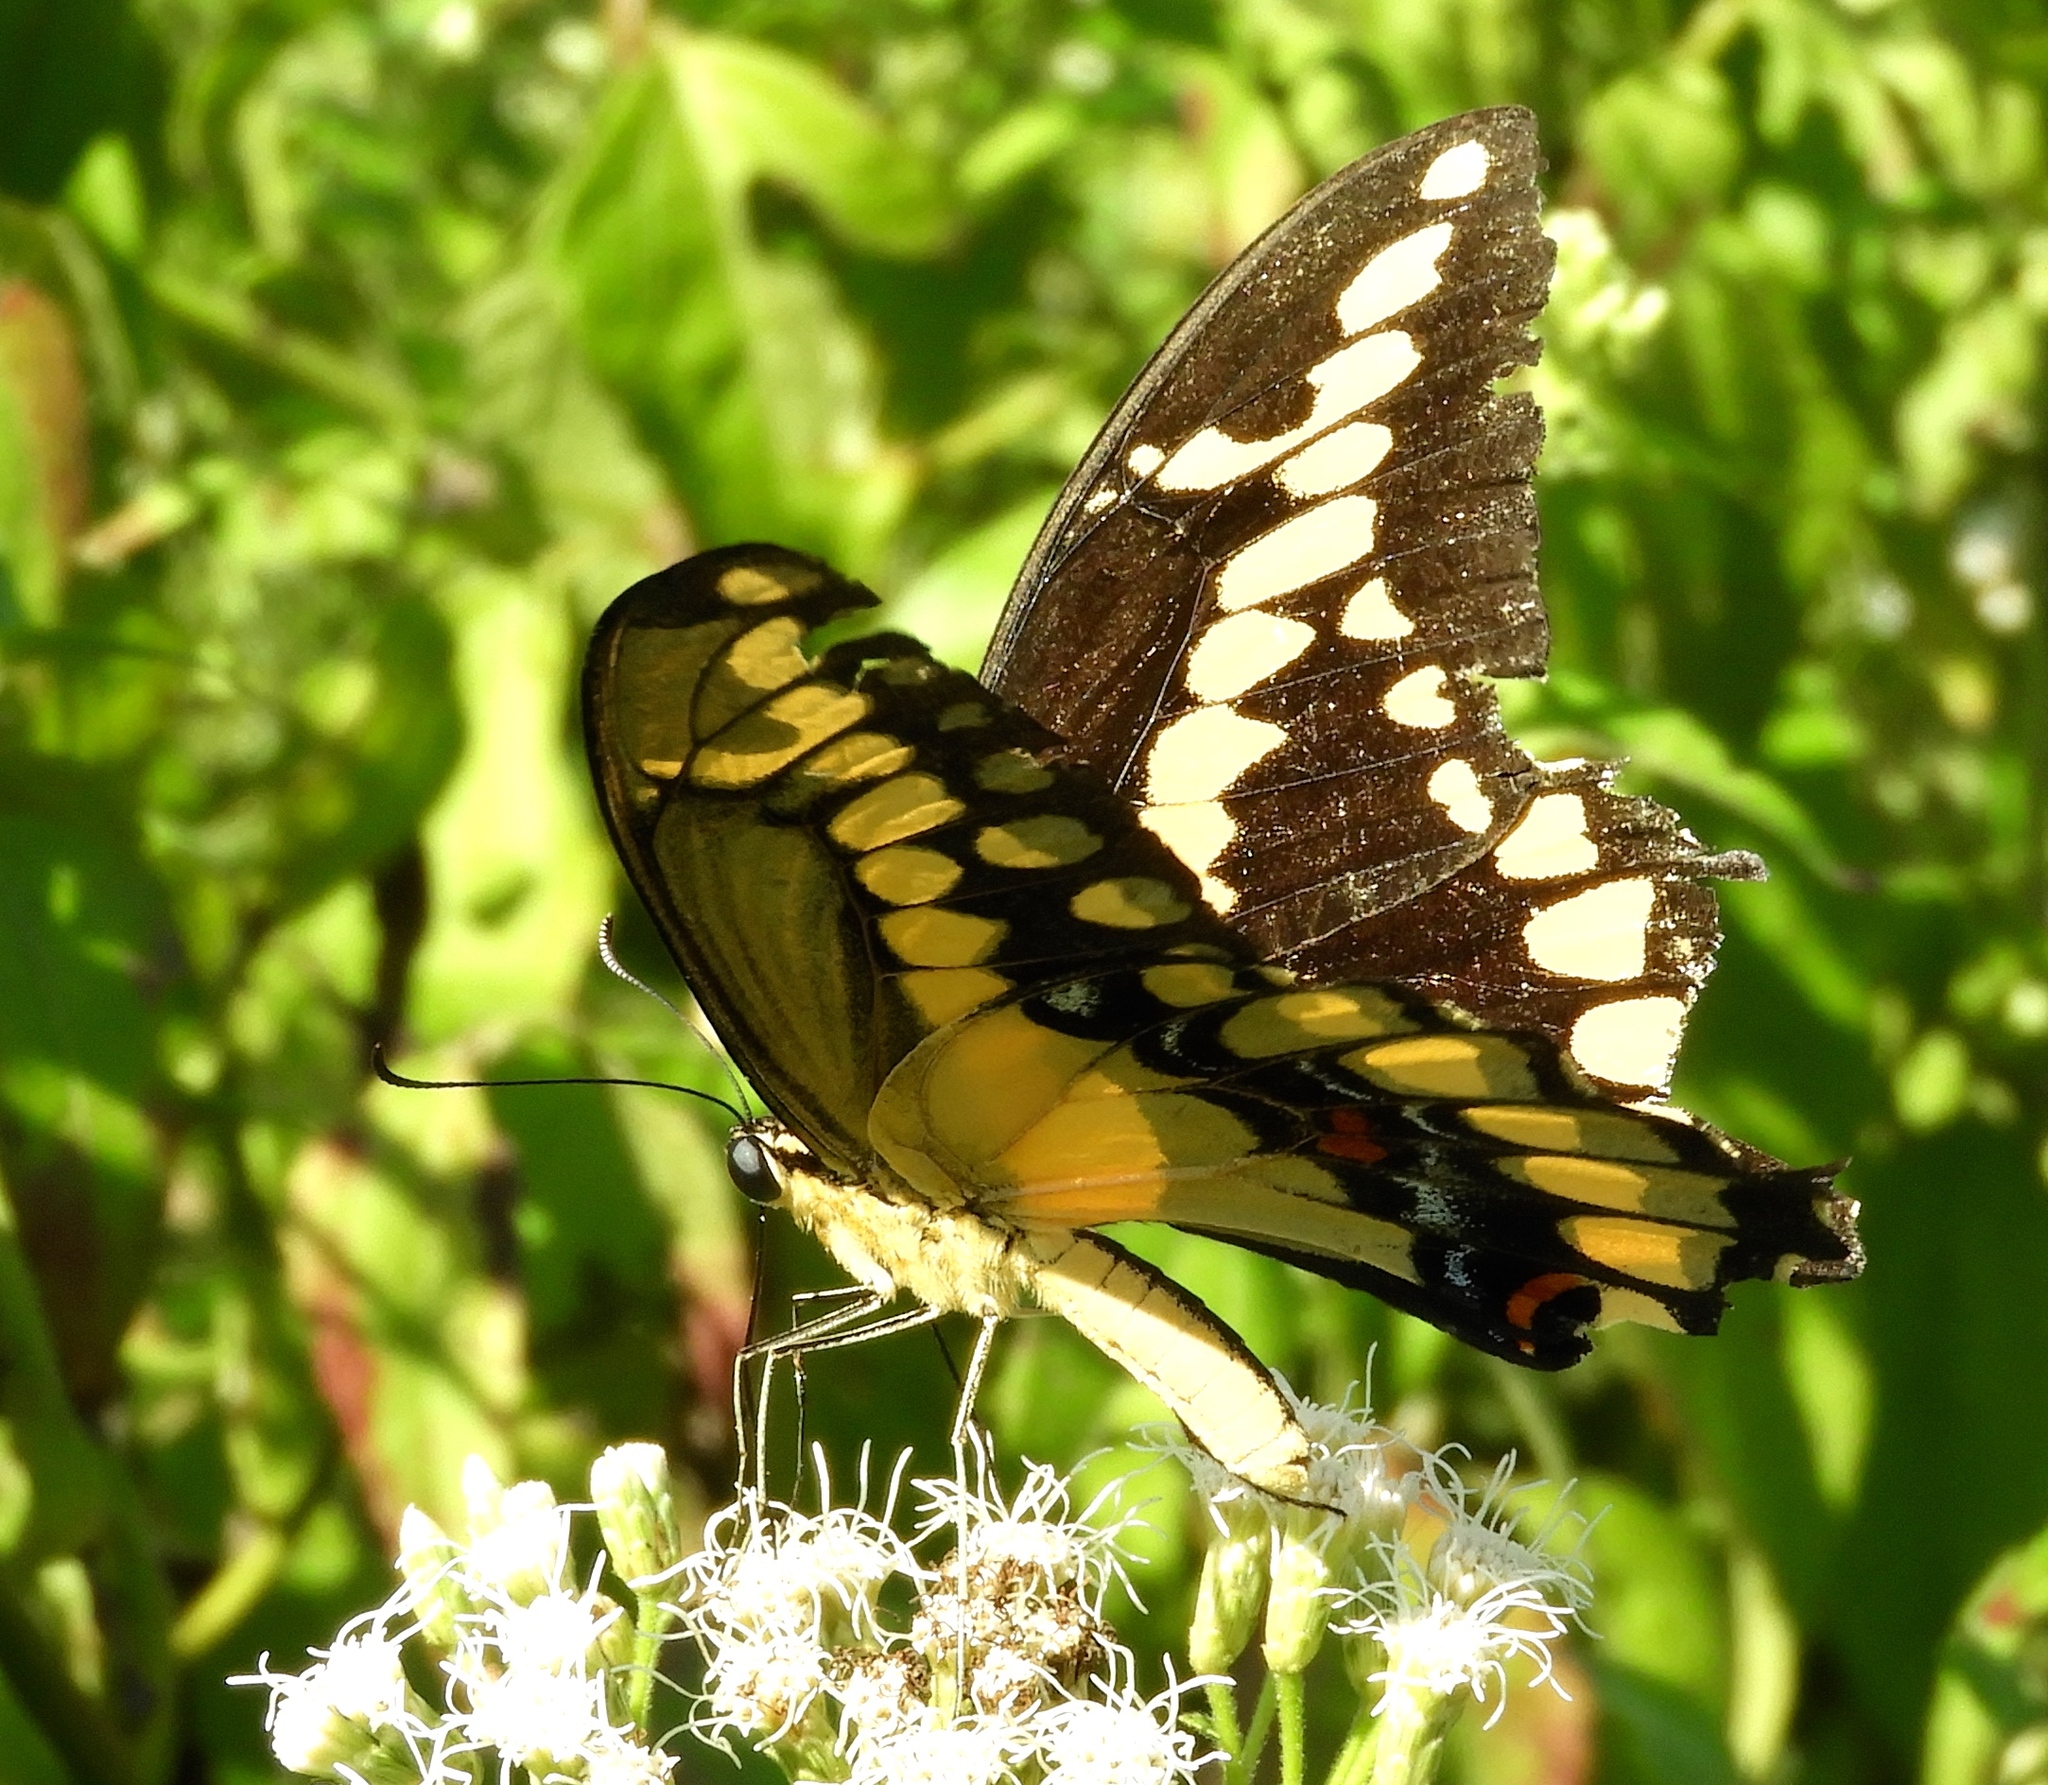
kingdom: Animalia
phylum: Arthropoda
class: Insecta
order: Lepidoptera
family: Papilionidae
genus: Papilio
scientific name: Papilio rumiko
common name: Western giant swallowtail
